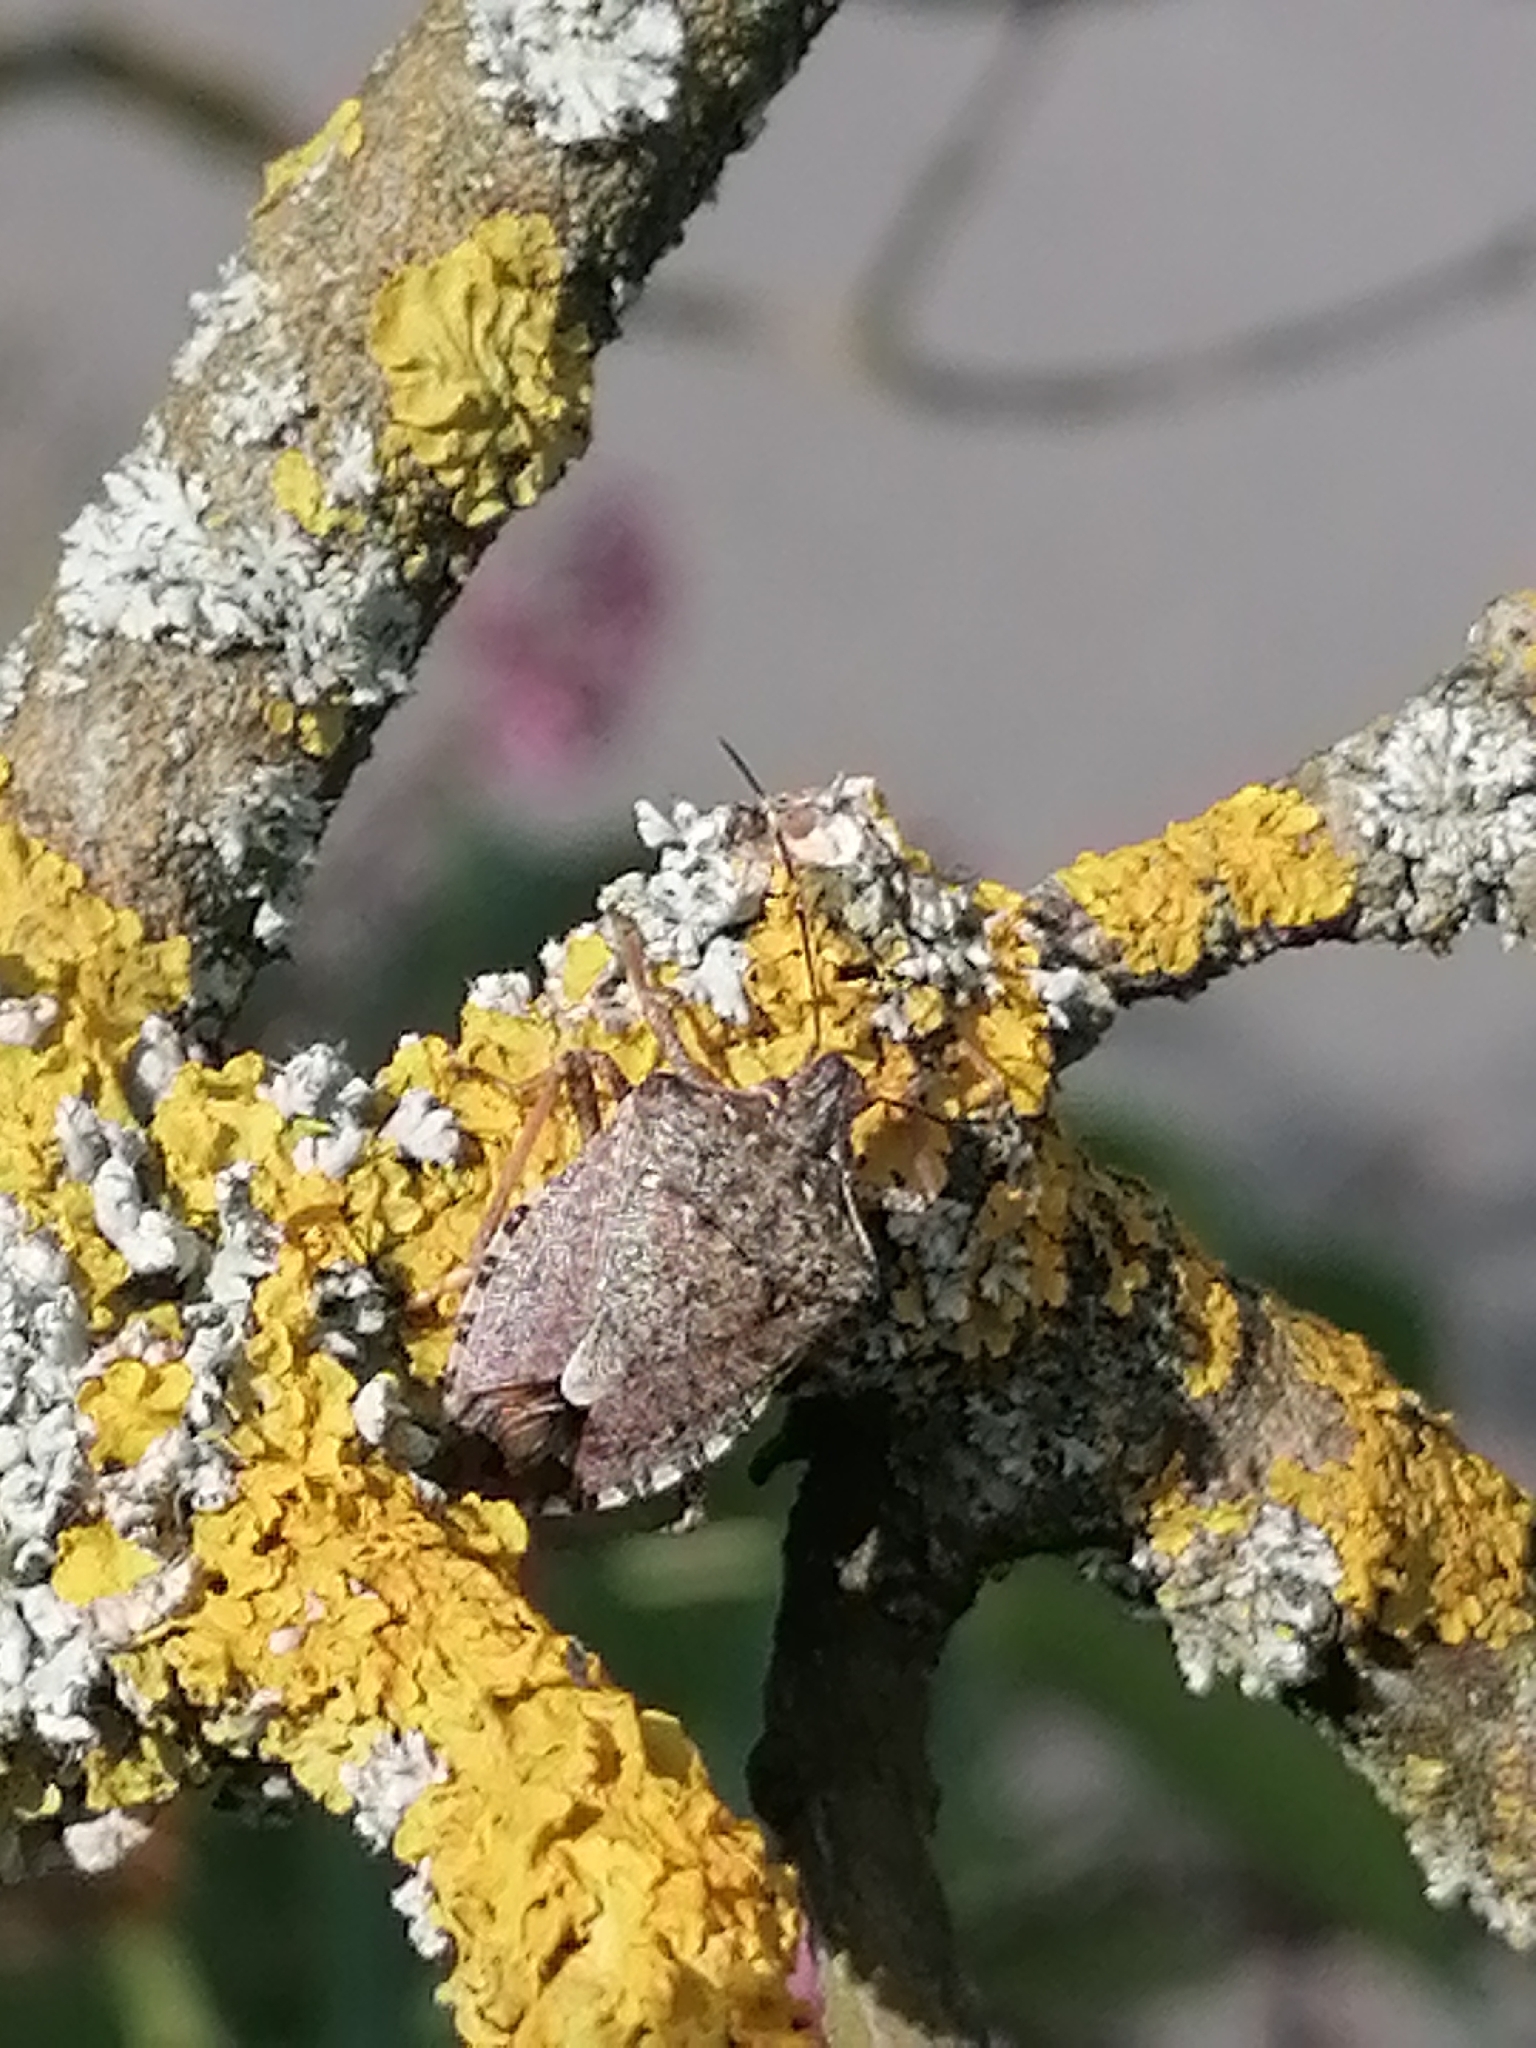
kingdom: Animalia
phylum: Arthropoda
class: Insecta
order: Hemiptera
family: Pentatomidae
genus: Halyomorpha
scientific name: Halyomorpha halys
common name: Brown marmorated stink bug
